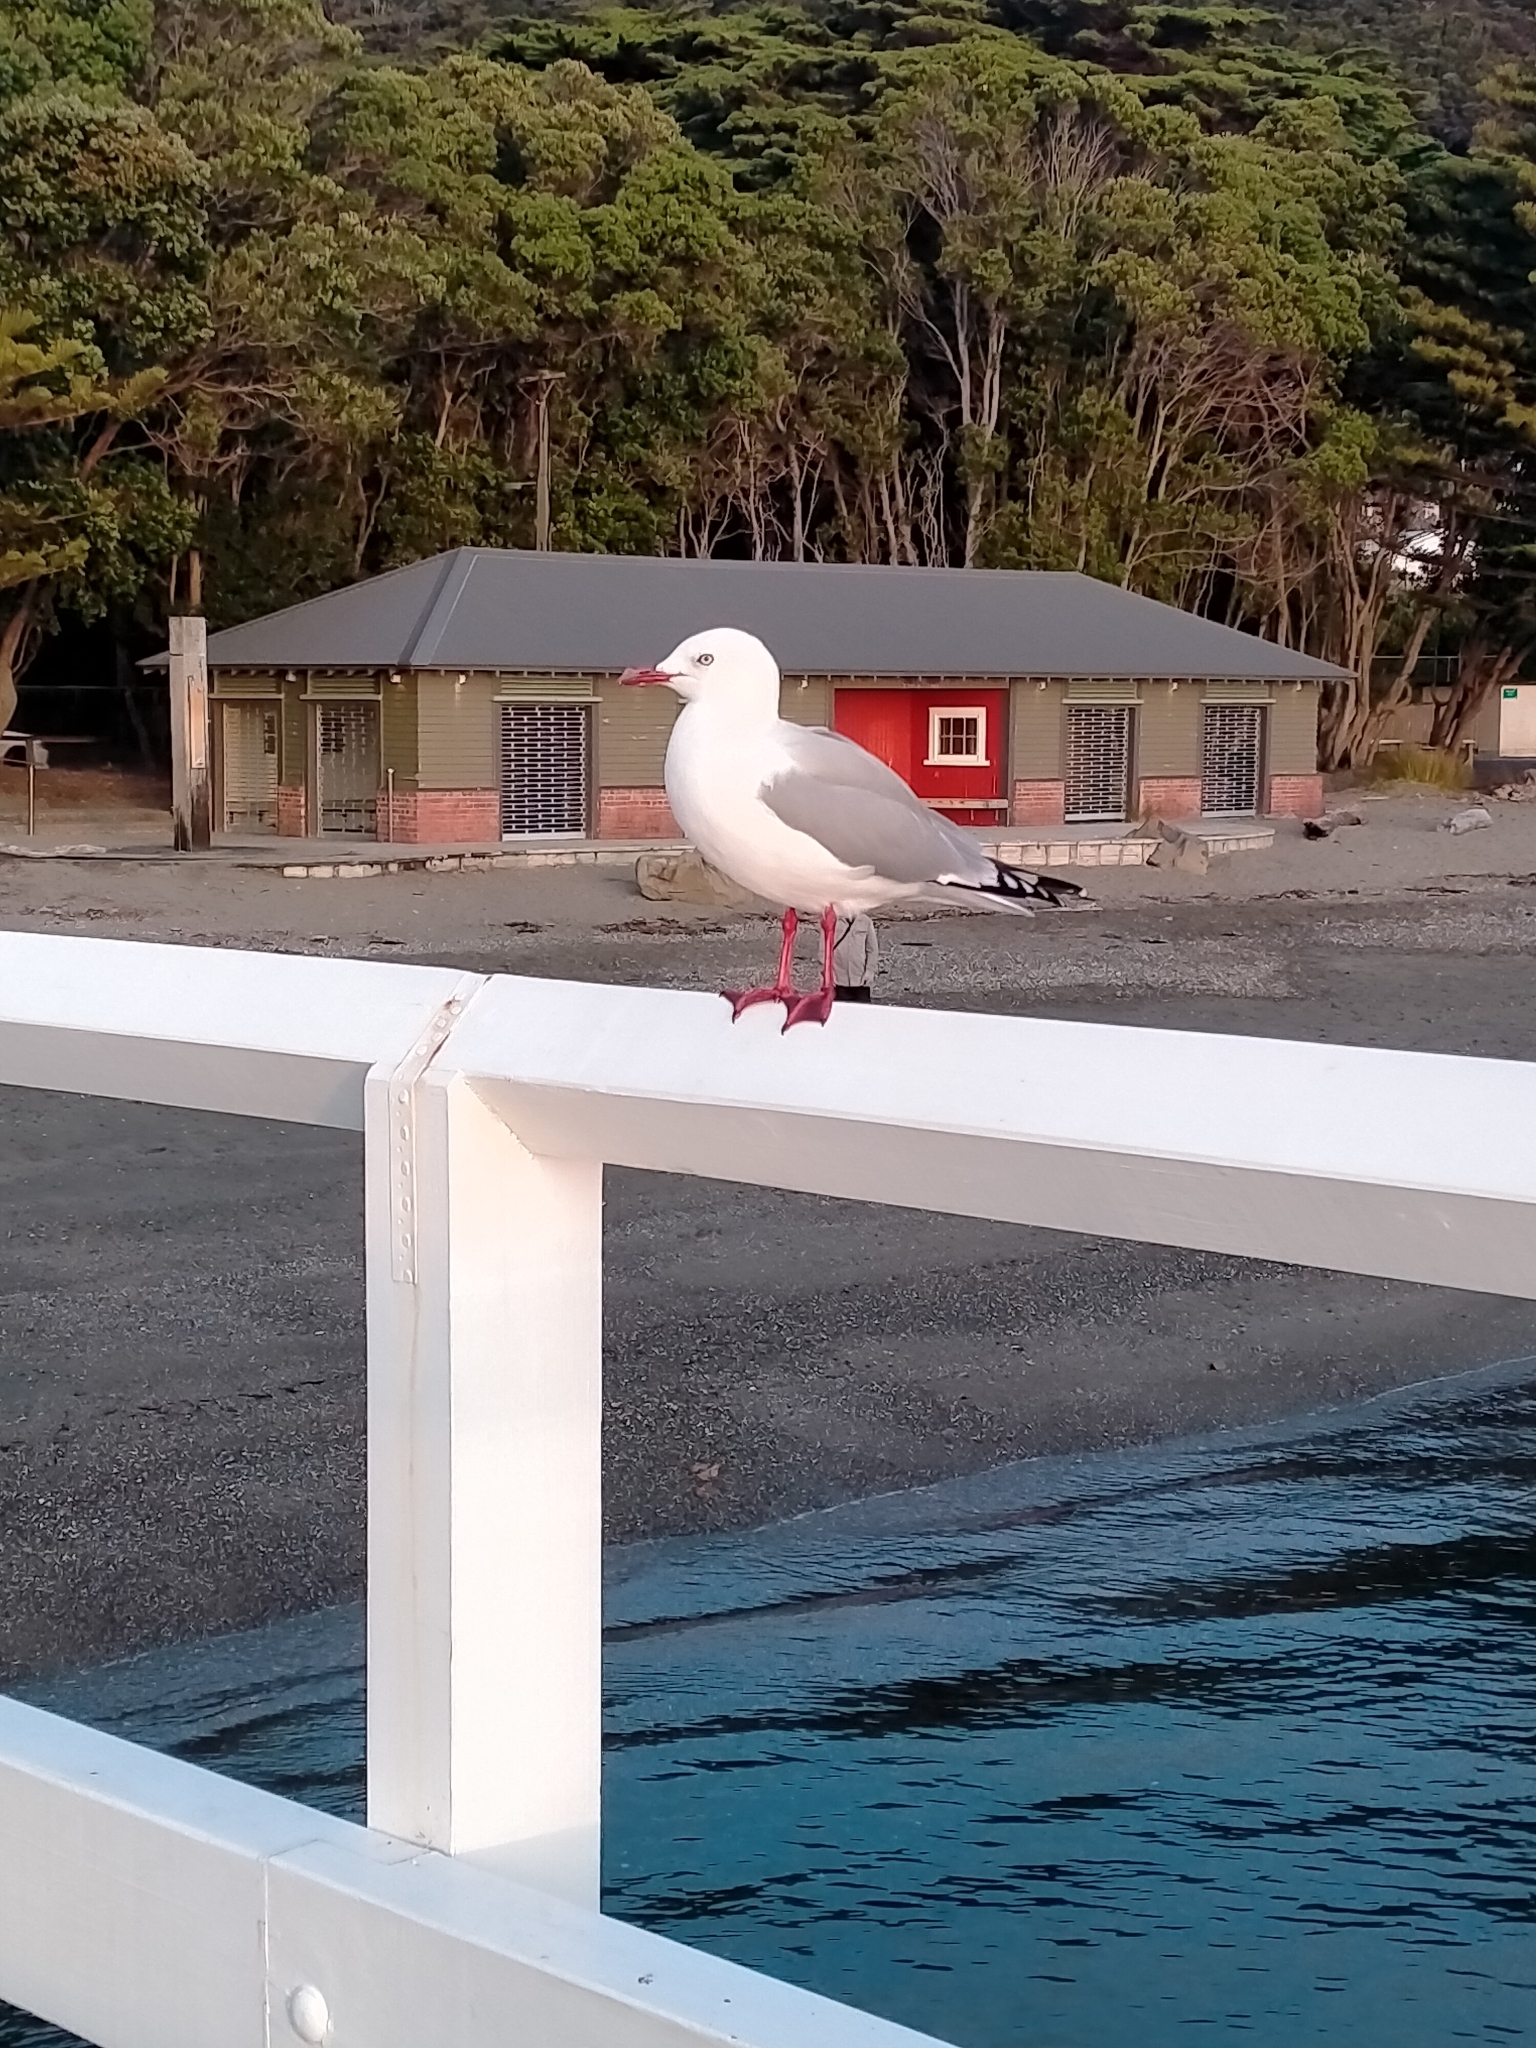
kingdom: Animalia
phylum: Chordata
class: Aves
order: Charadriiformes
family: Laridae
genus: Chroicocephalus
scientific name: Chroicocephalus novaehollandiae
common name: Silver gull
